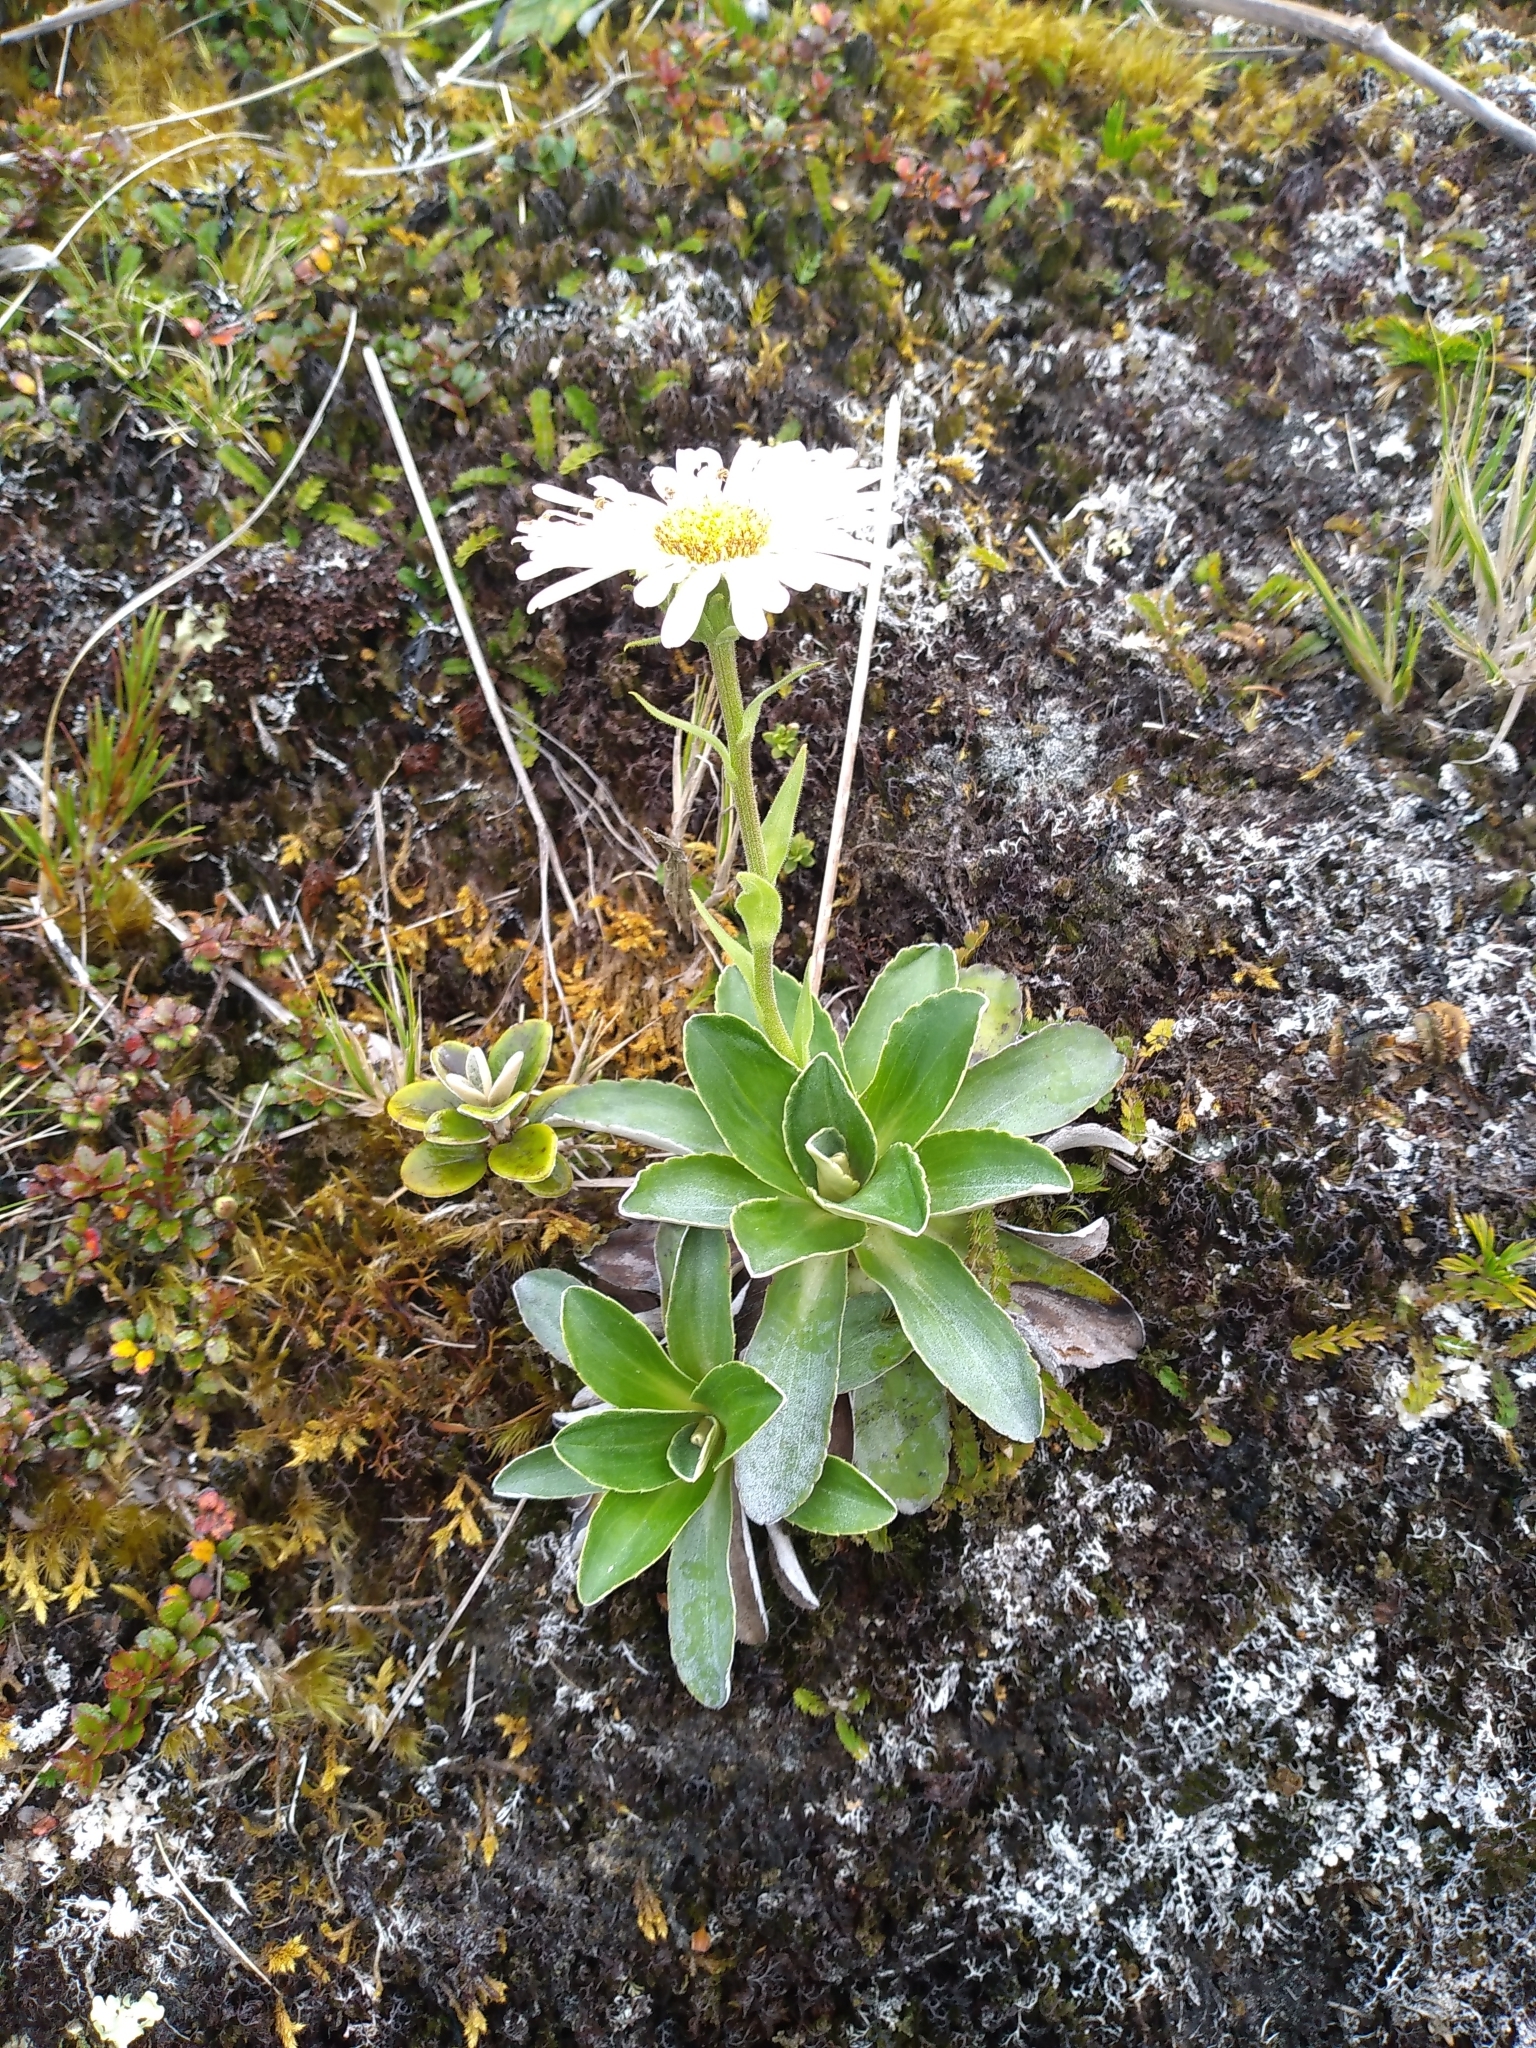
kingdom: Plantae
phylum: Tracheophyta
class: Magnoliopsida
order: Asterales
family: Asteraceae
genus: Celmisia
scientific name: Celmisia hieraciifolia
